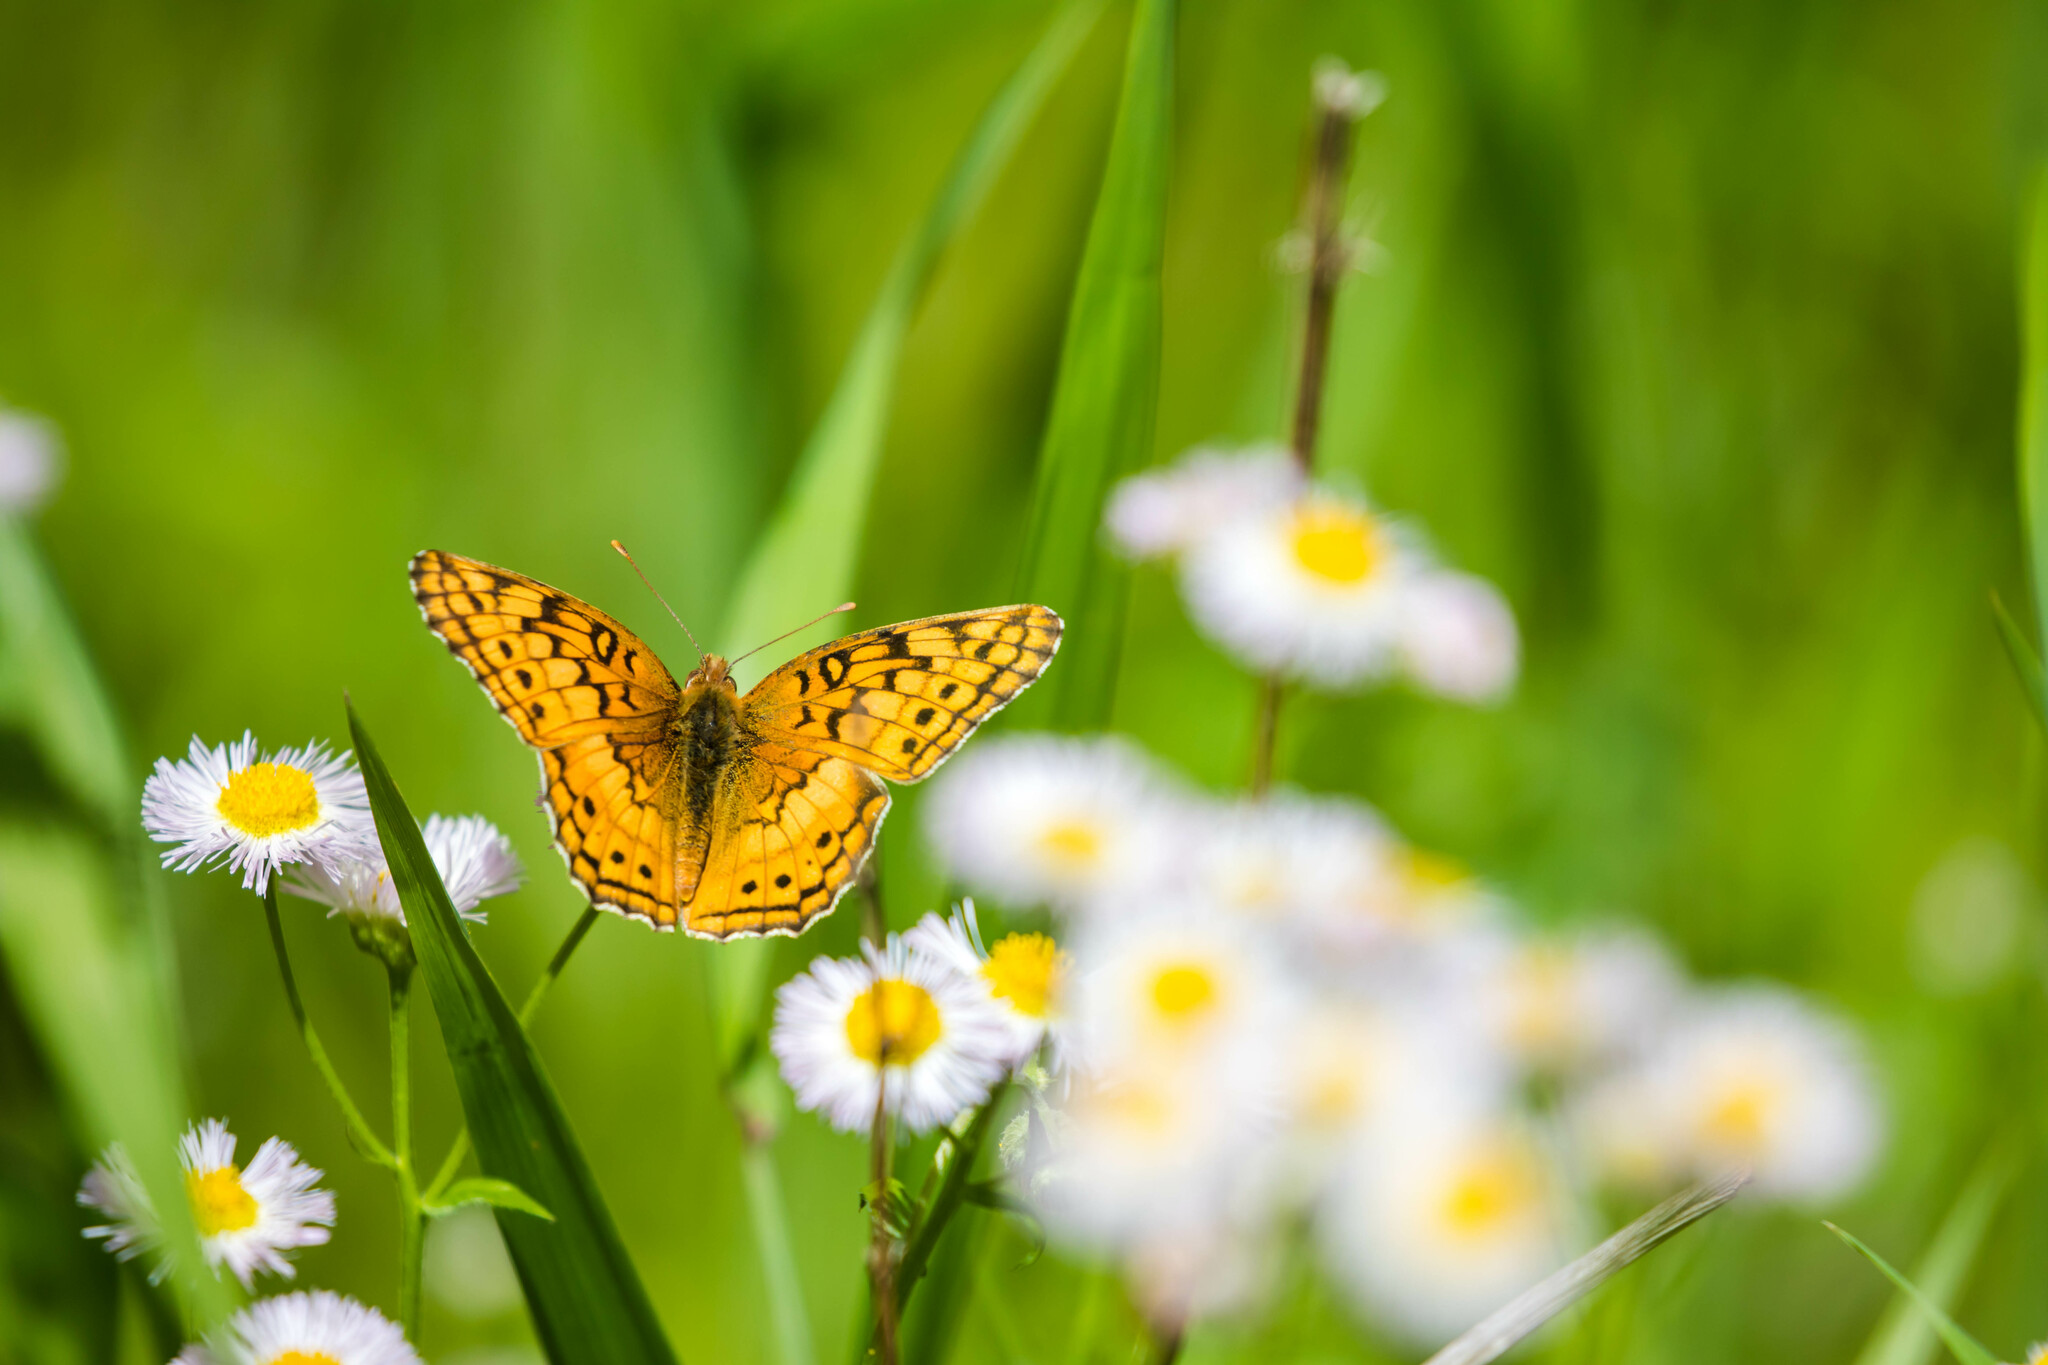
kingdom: Animalia
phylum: Arthropoda
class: Insecta
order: Lepidoptera
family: Nymphalidae
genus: Euptoieta
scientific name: Euptoieta claudia
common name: Variegated fritillary
